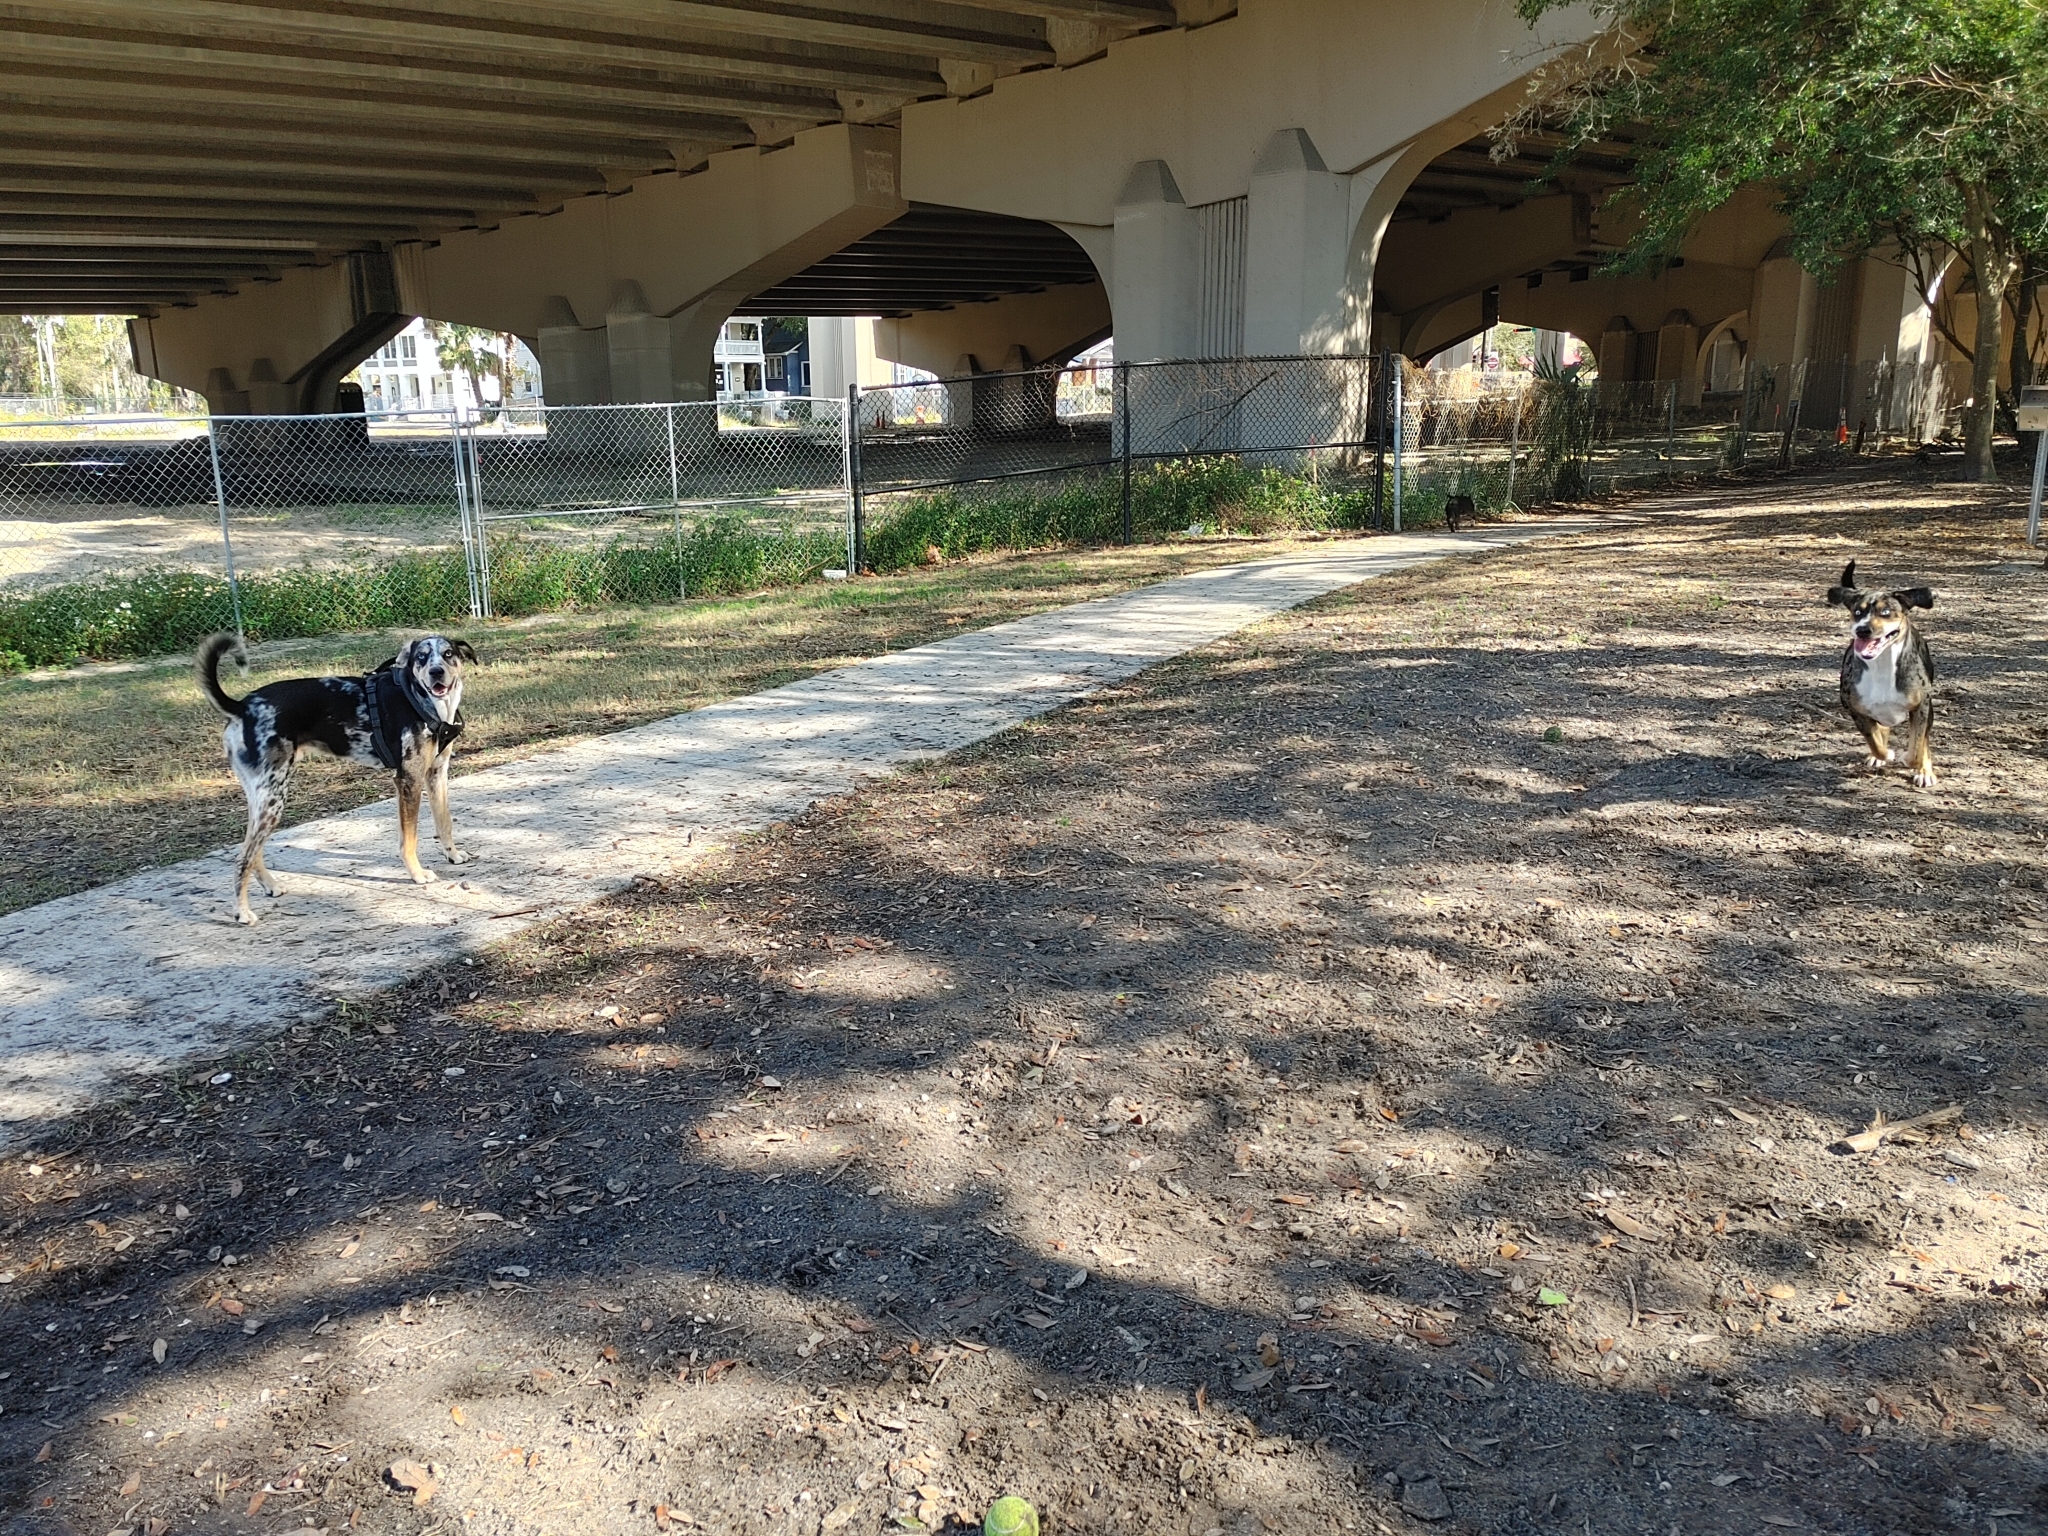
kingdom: Plantae
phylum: Tracheophyta
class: Magnoliopsida
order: Asterales
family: Asteraceae
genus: Bidens
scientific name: Bidens alba
